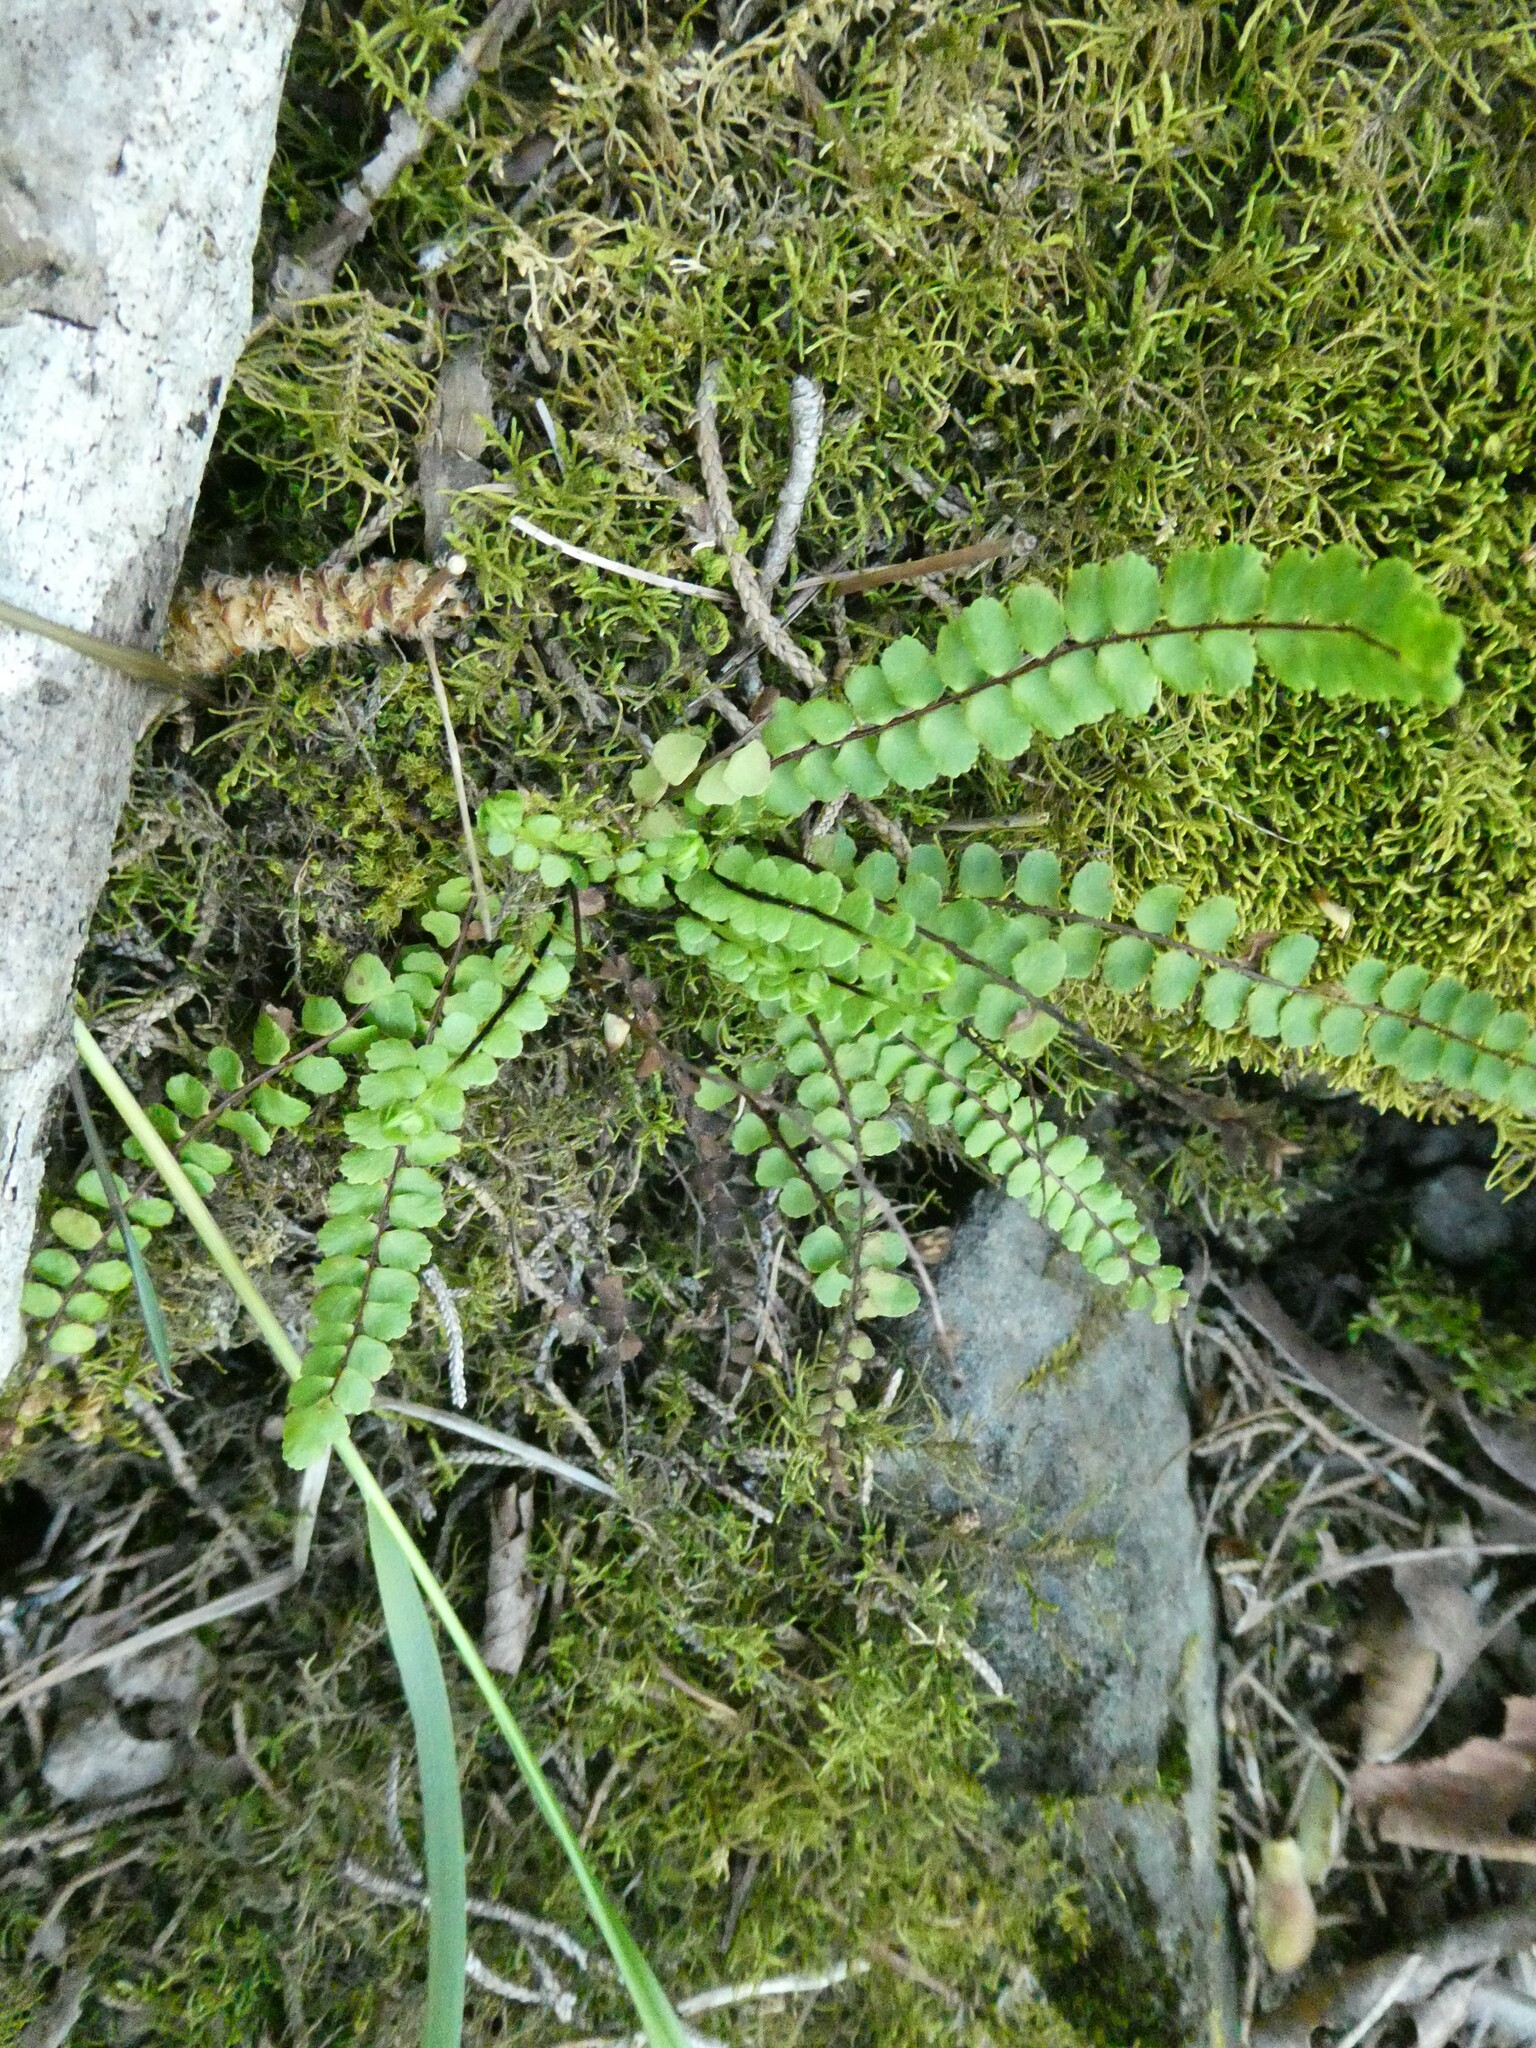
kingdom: Plantae
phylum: Tracheophyta
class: Polypodiopsida
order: Polypodiales
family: Aspleniaceae
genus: Asplenium
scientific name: Asplenium trichomanes
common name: Maidenhair spleenwort
